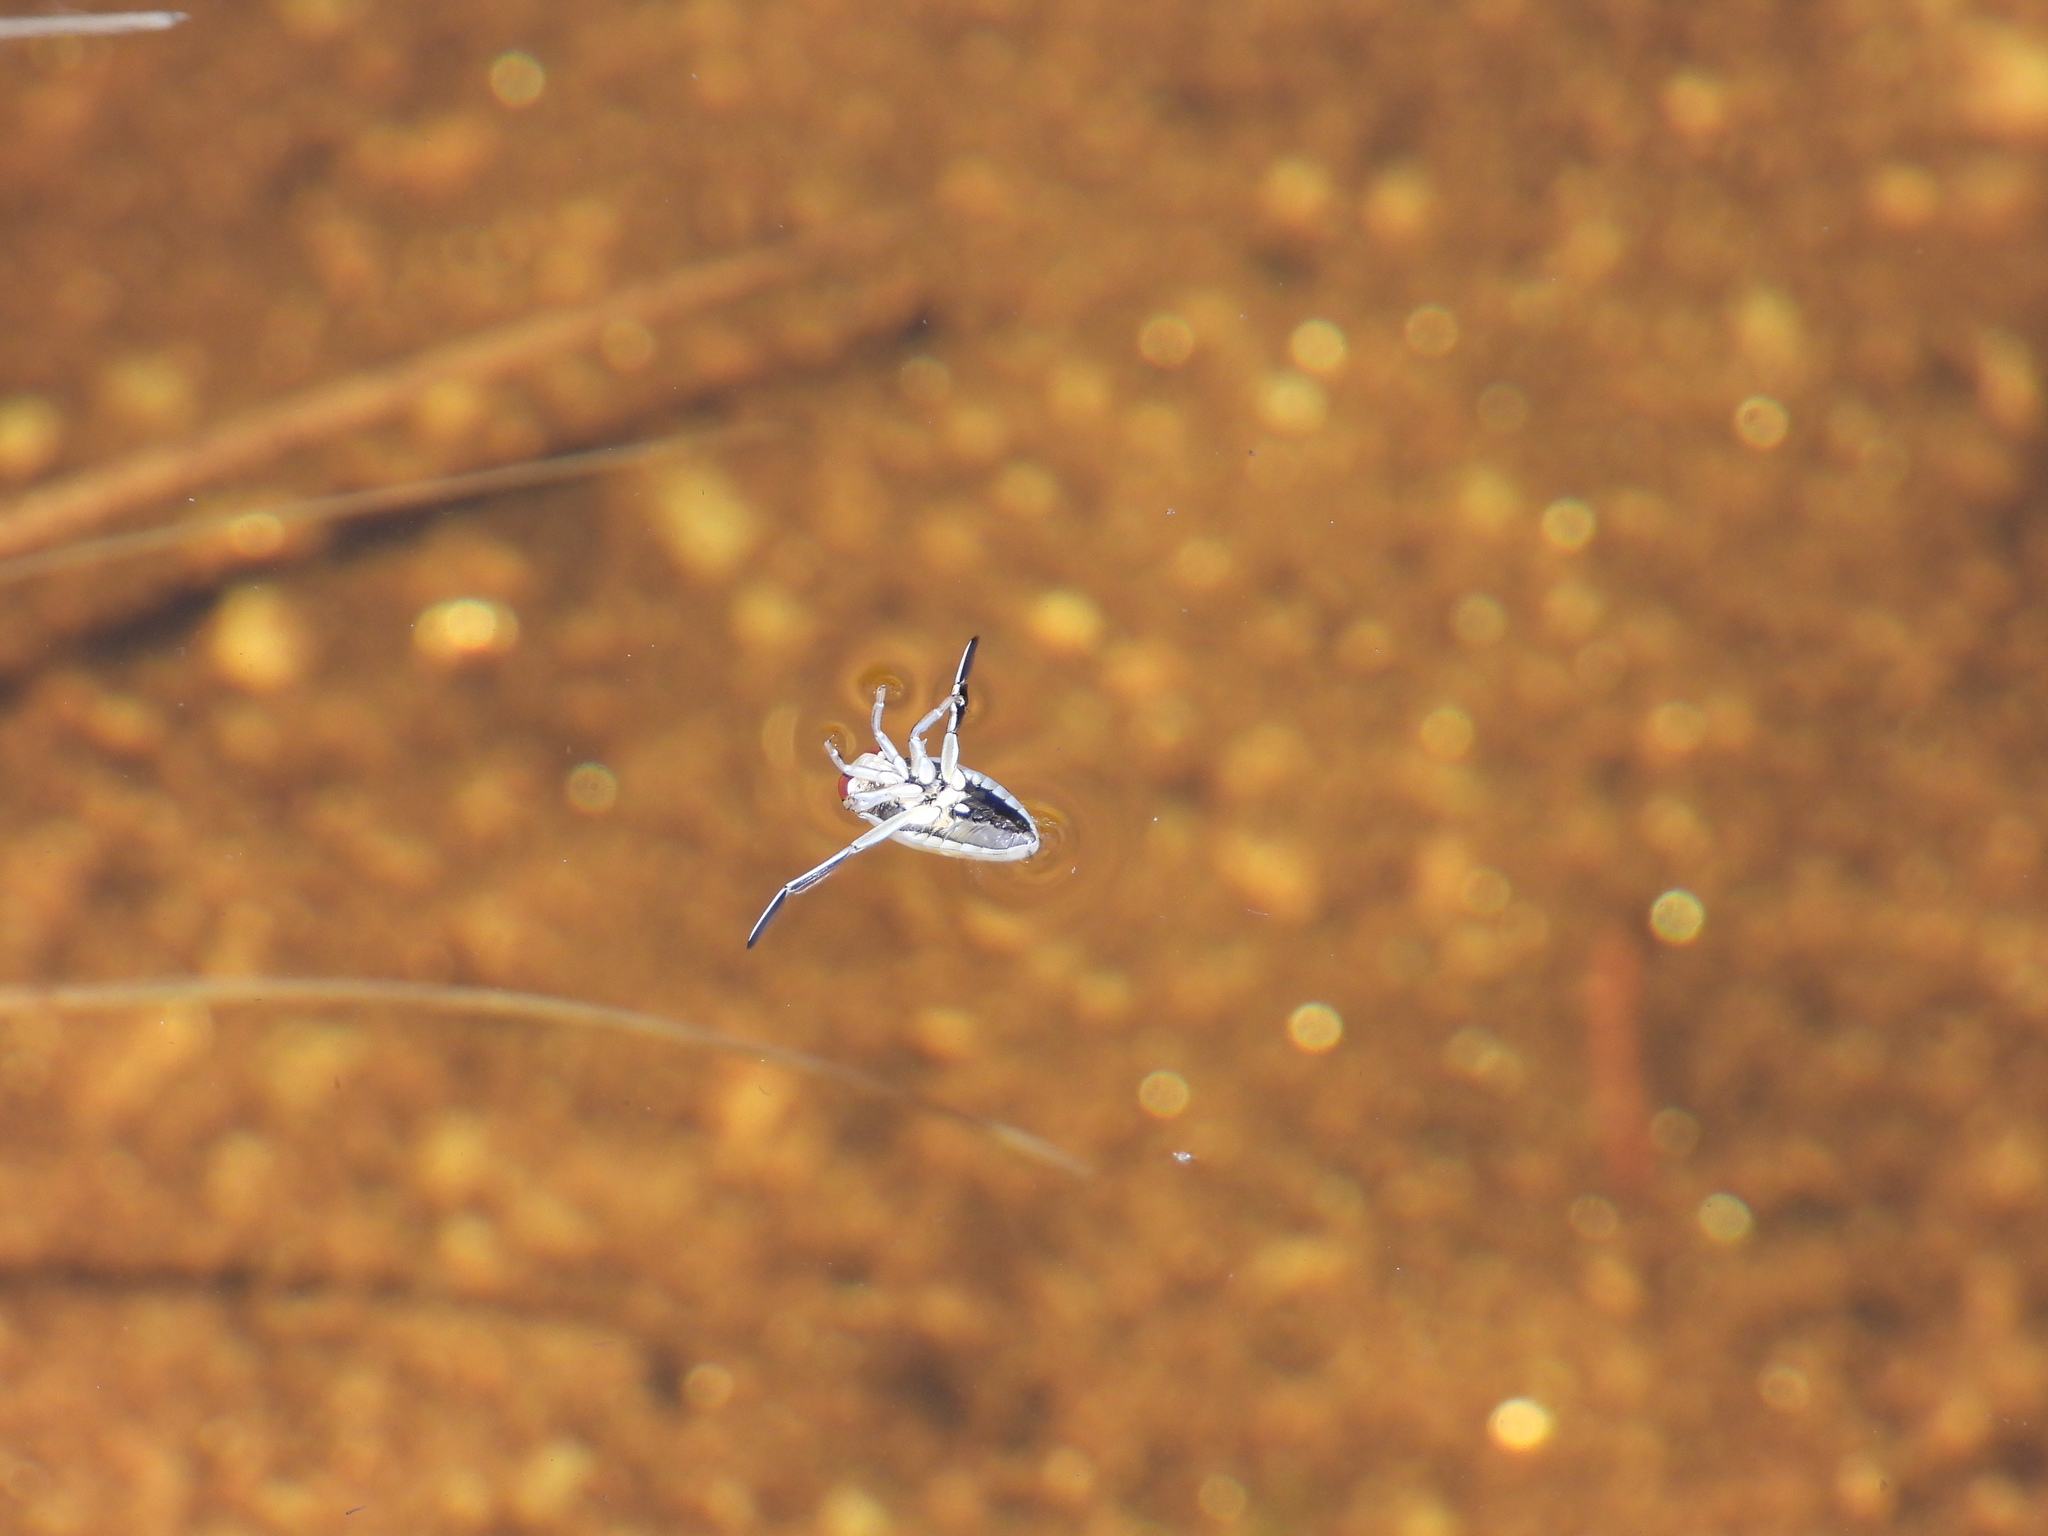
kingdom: Animalia
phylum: Arthropoda
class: Insecta
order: Hemiptera
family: Notonectidae
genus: Notonecta
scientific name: Notonecta
